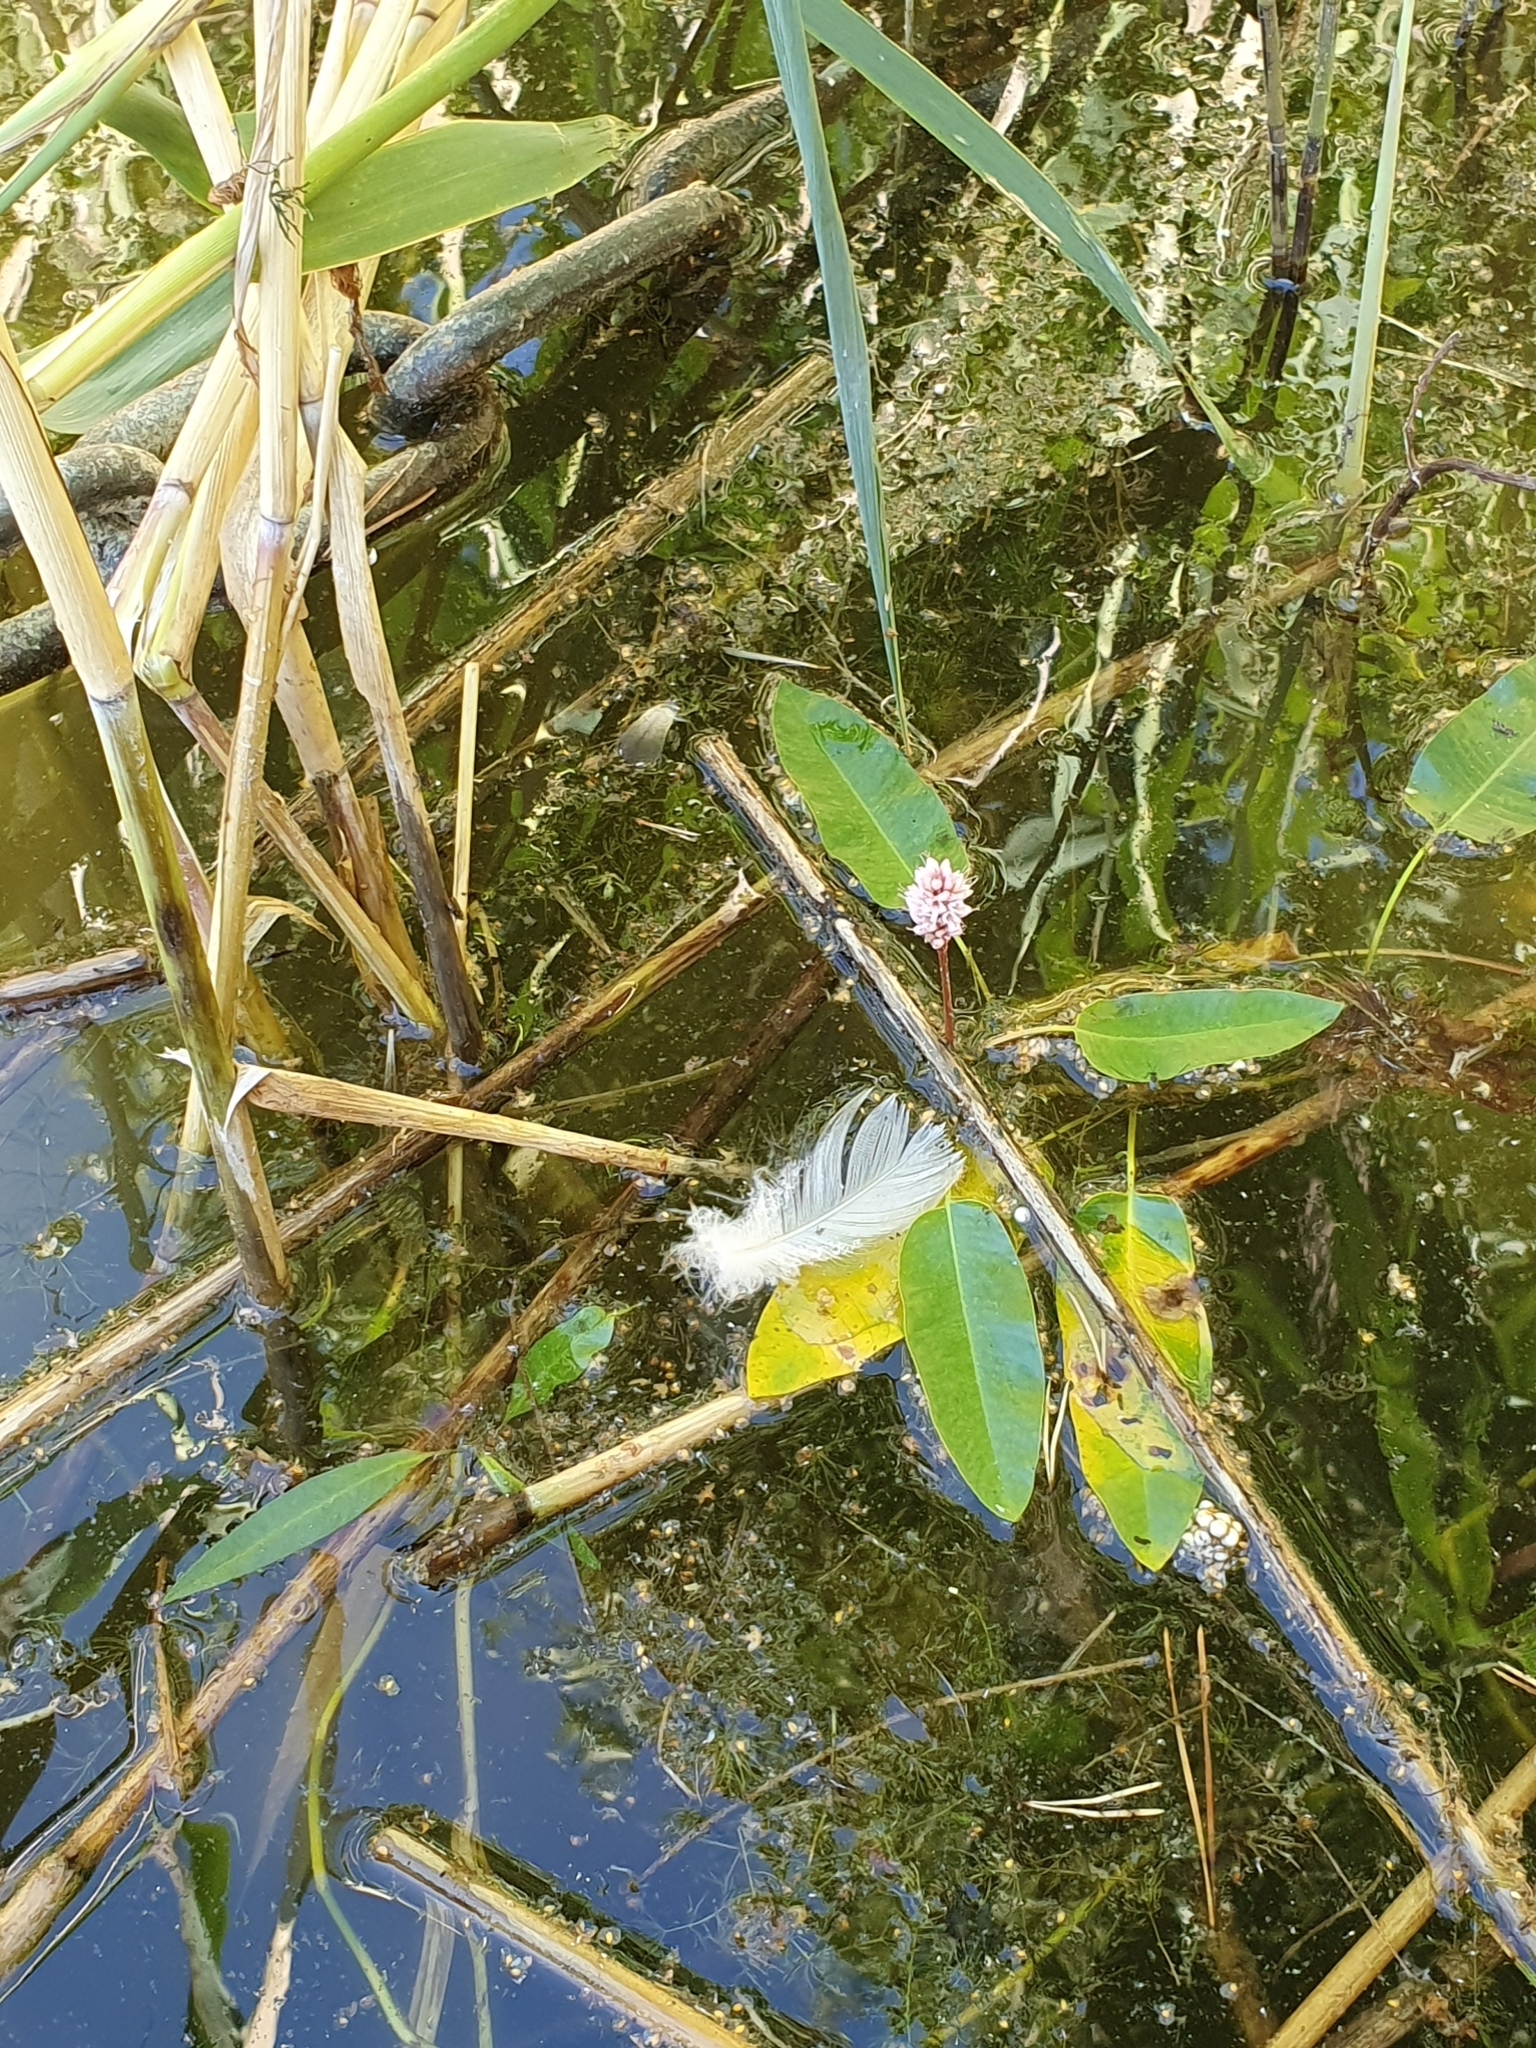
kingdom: Plantae
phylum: Tracheophyta
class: Magnoliopsida
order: Caryophyllales
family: Polygonaceae
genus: Persicaria
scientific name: Persicaria amphibia
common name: Amphibious bistort
